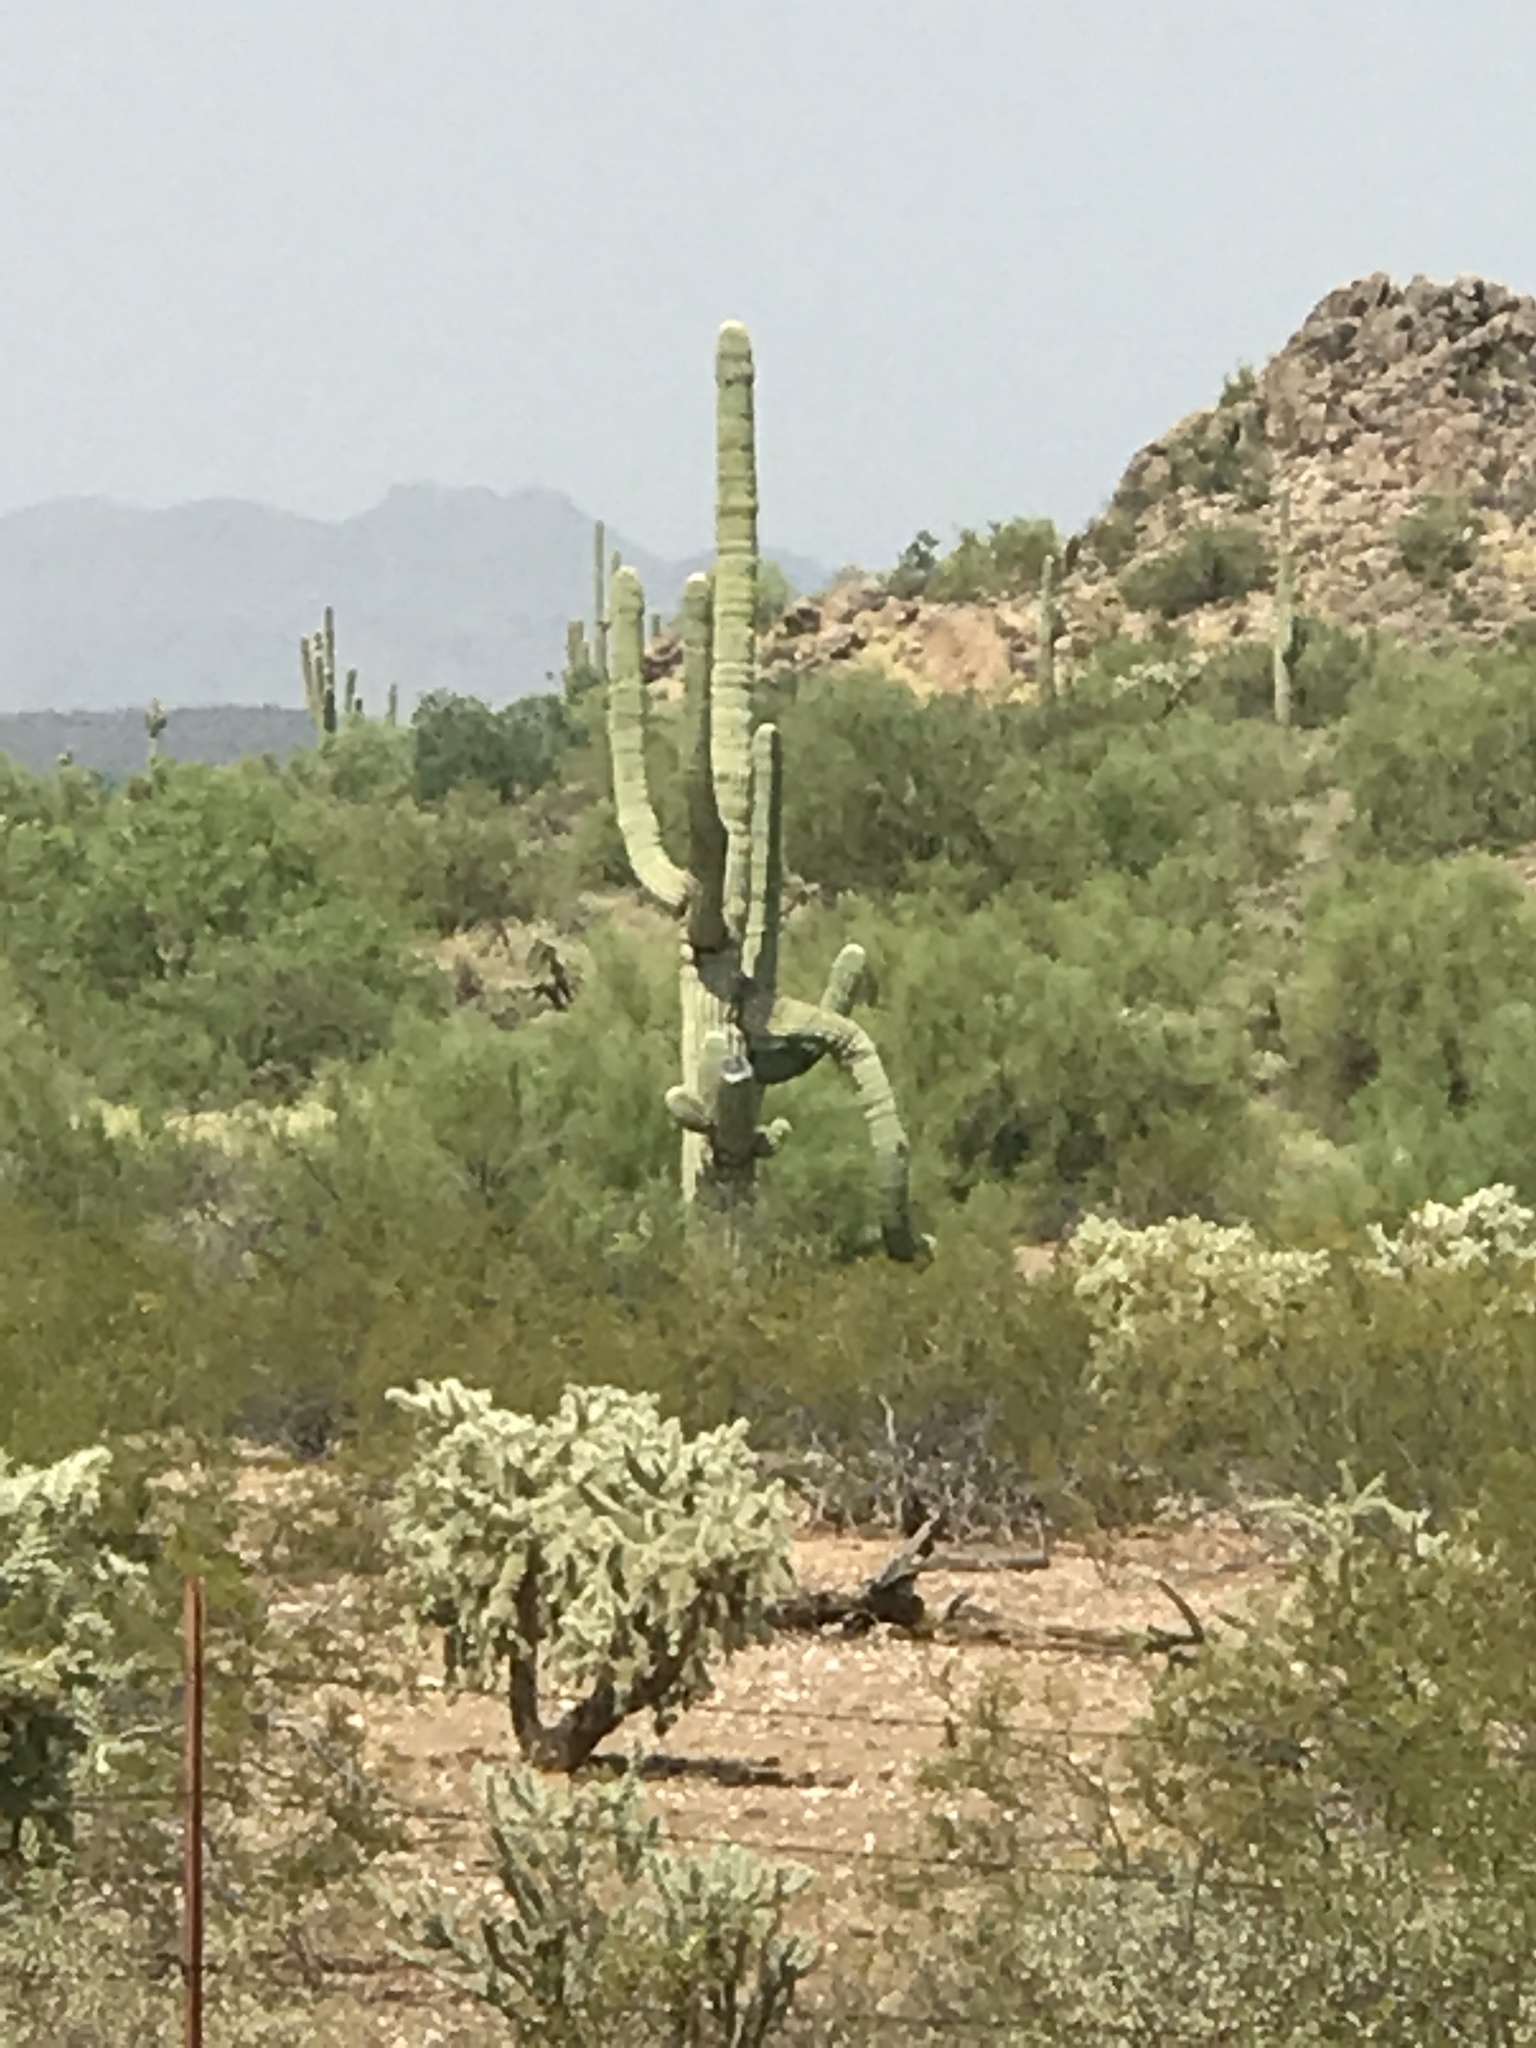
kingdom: Plantae
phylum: Tracheophyta
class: Magnoliopsida
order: Caryophyllales
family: Cactaceae
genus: Carnegiea
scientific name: Carnegiea gigantea
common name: Saguaro
